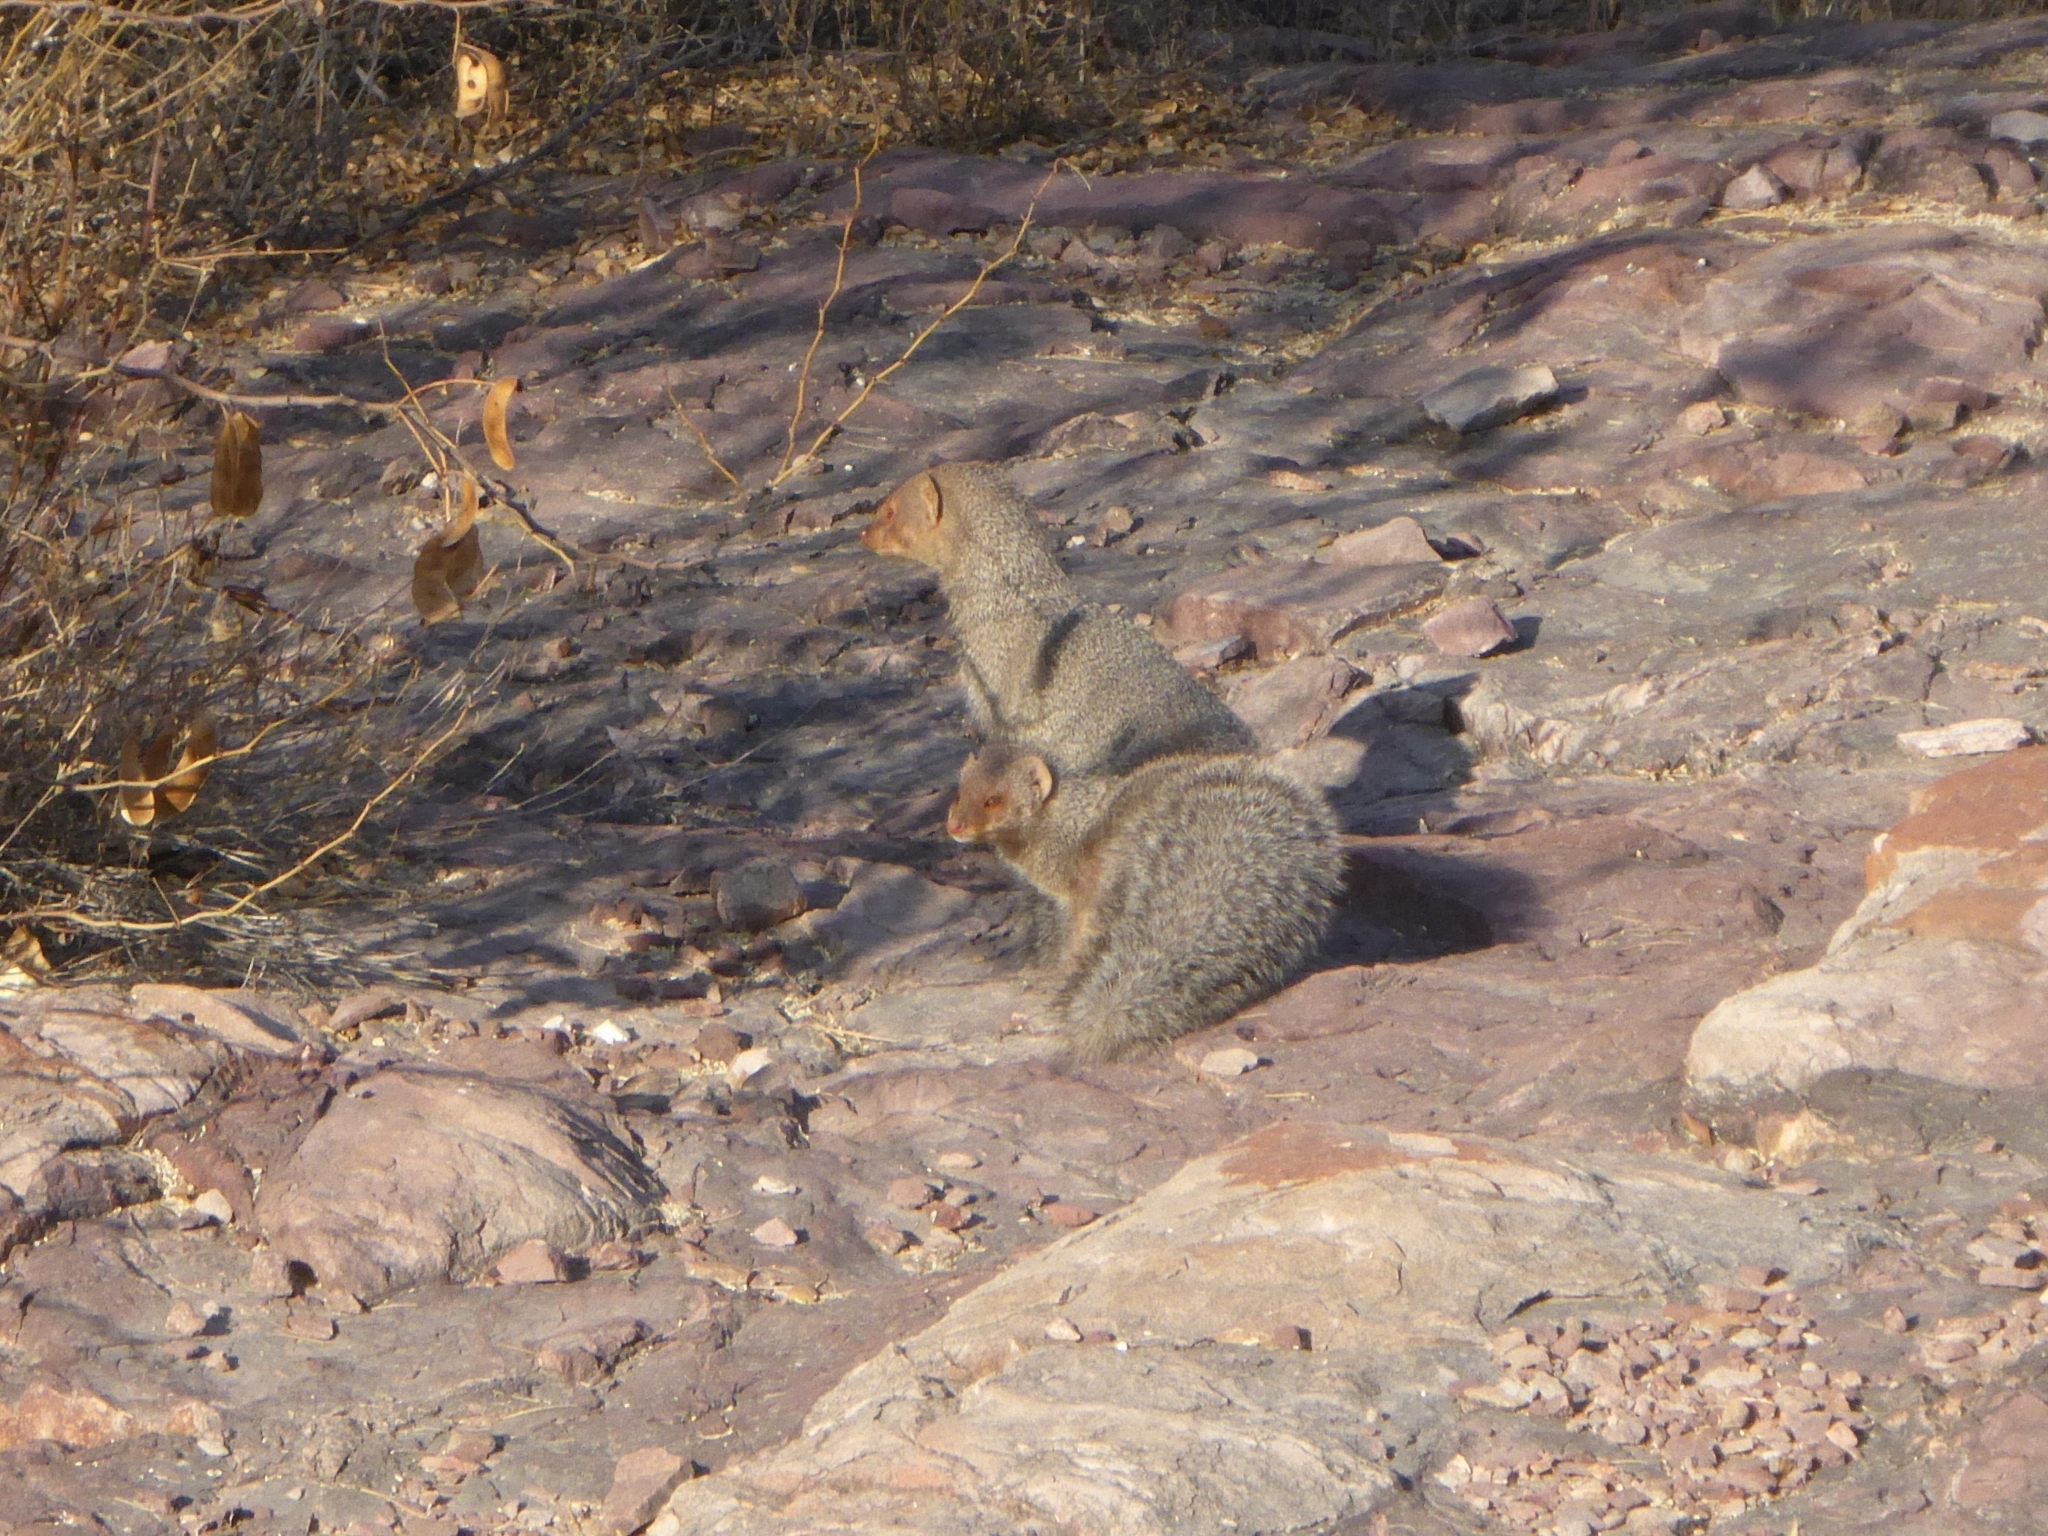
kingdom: Animalia
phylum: Chordata
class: Mammalia
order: Carnivora
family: Herpestidae
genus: Herpestes
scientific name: Herpestes edwardsi
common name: Indian gray mongoose
